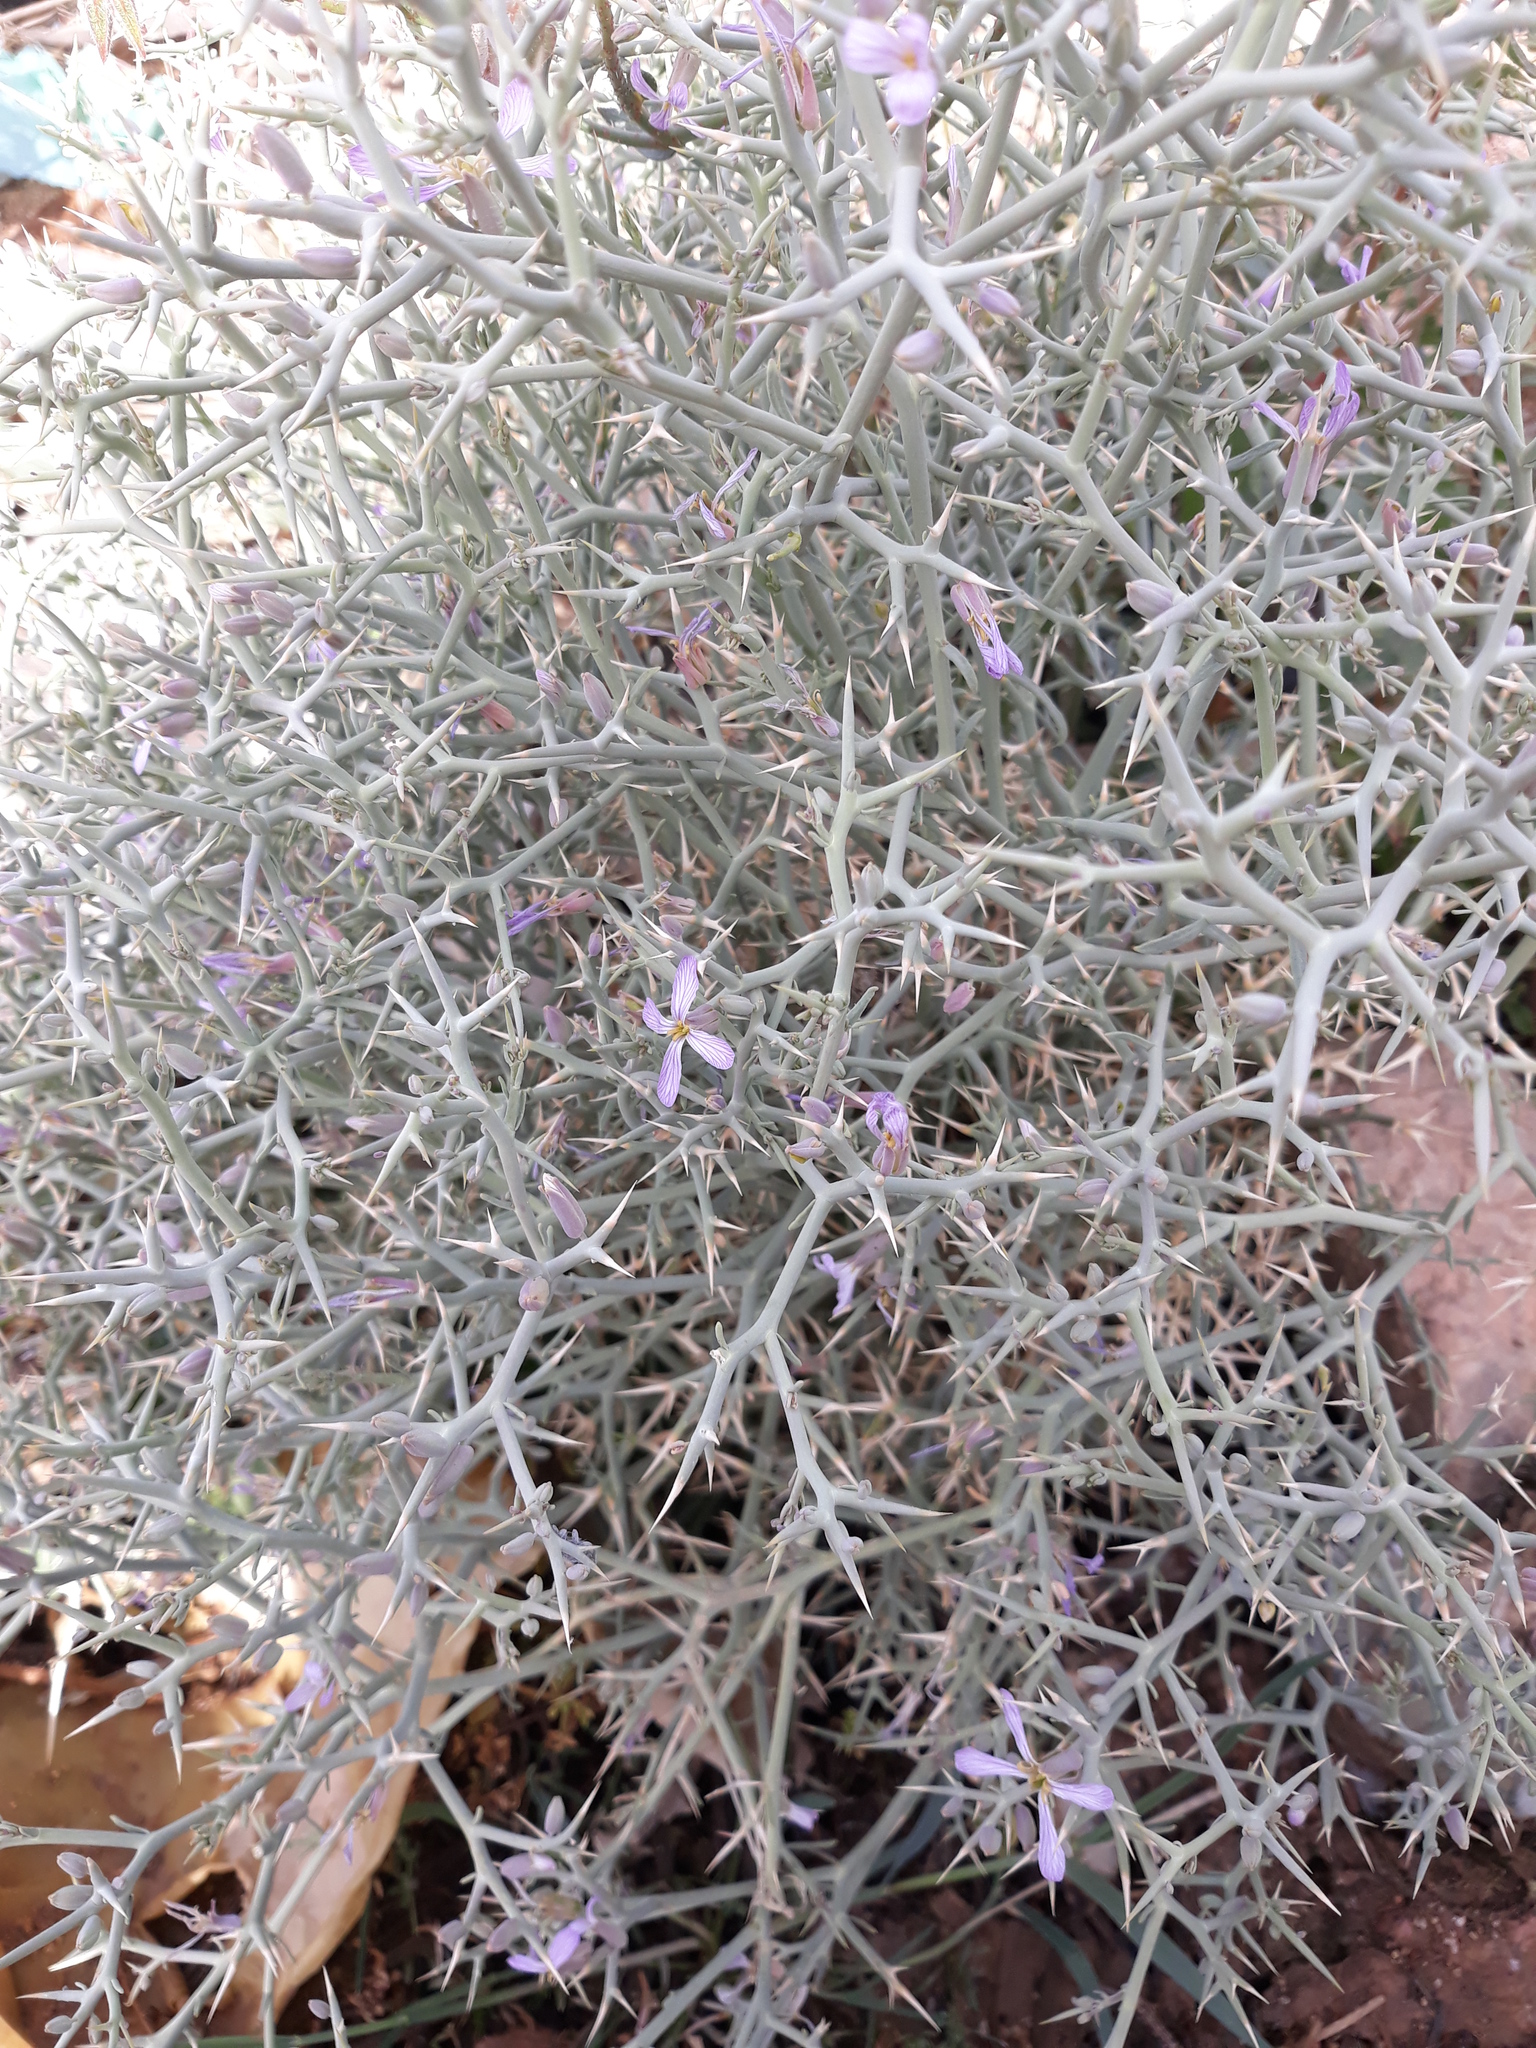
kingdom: Plantae
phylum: Tracheophyta
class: Magnoliopsida
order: Brassicales
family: Brassicaceae
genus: Zilla
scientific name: Zilla spinosa
